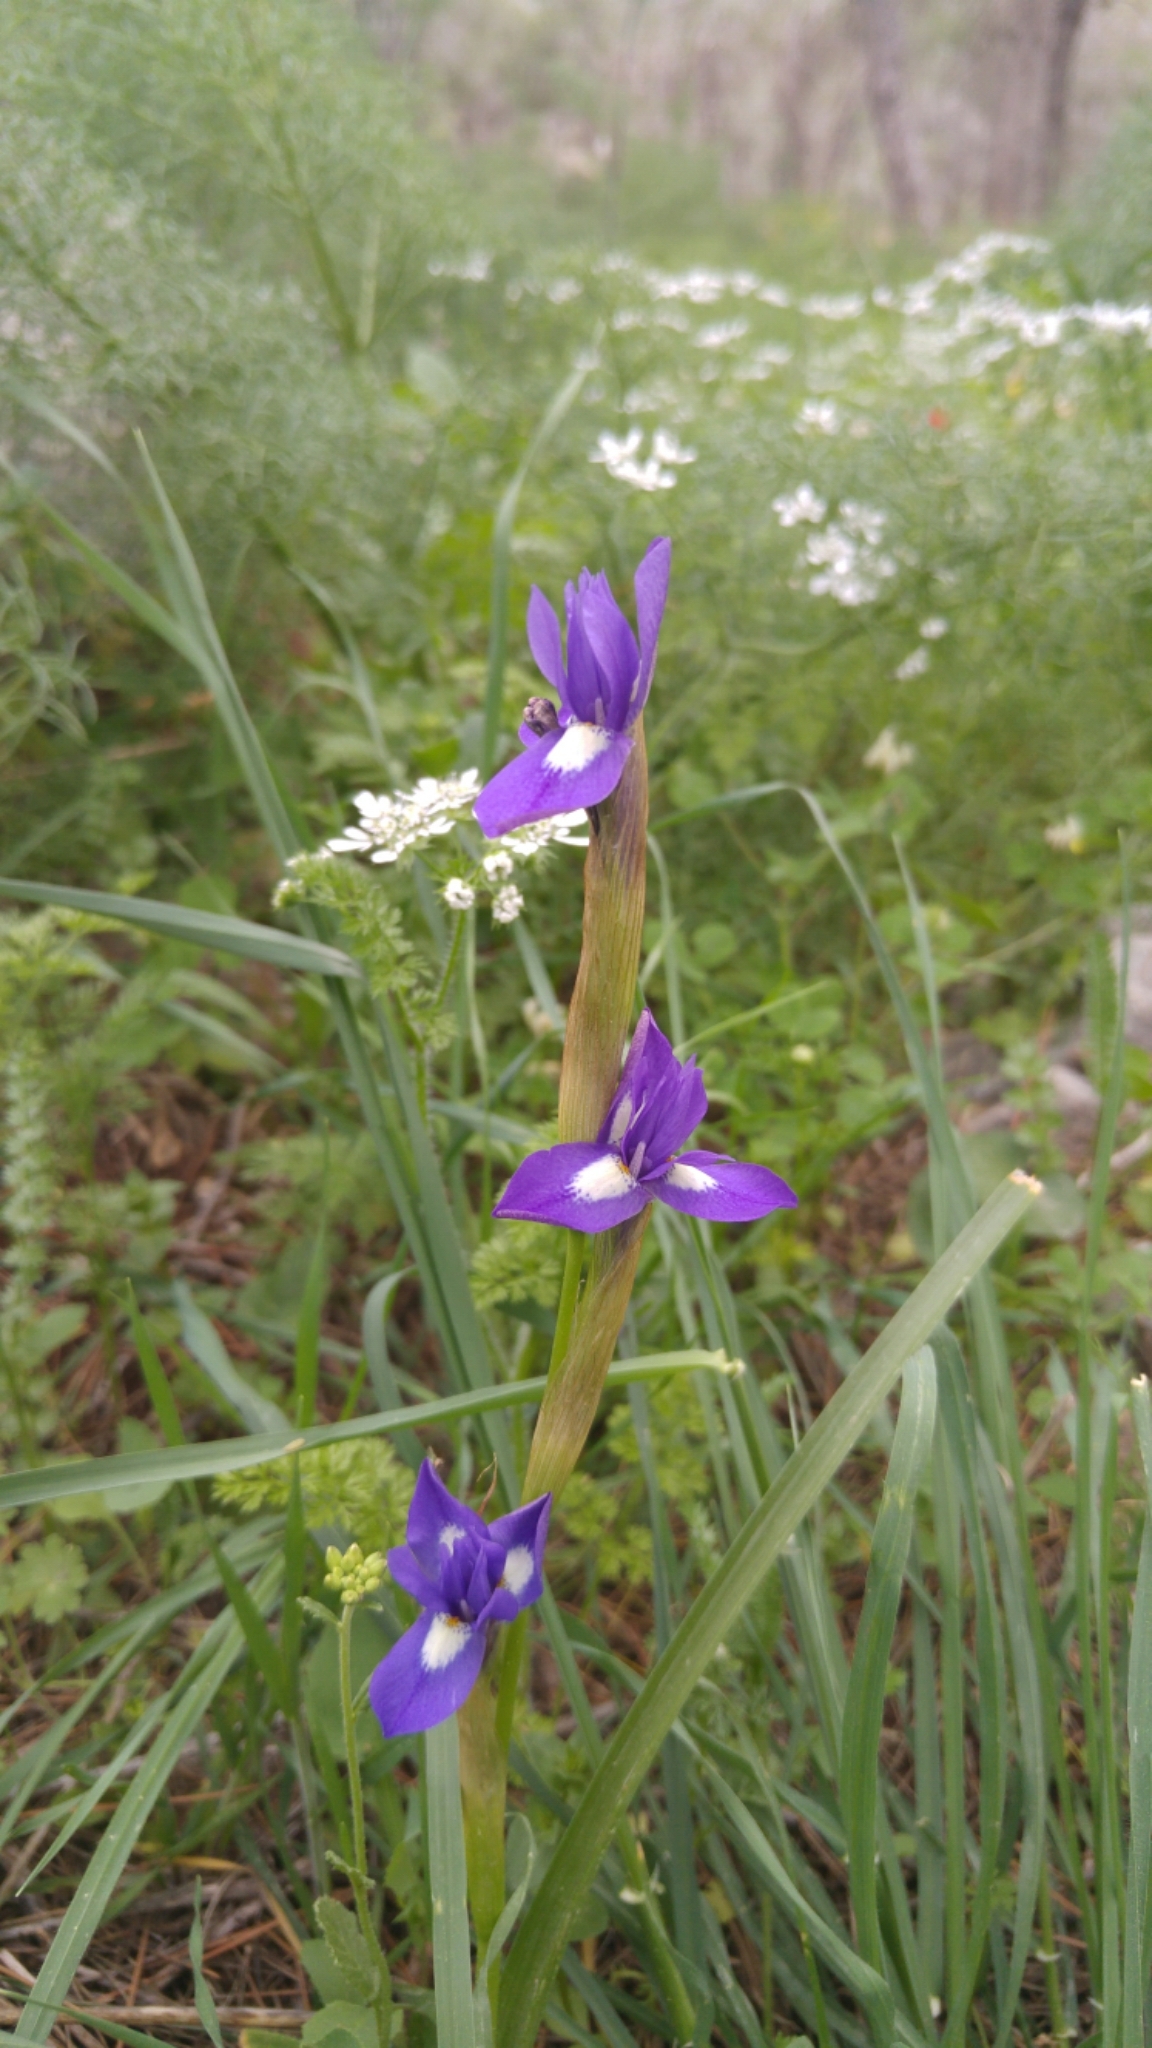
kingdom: Plantae
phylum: Tracheophyta
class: Liliopsida
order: Asparagales
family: Iridaceae
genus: Moraea
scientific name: Moraea sisyrinchium
